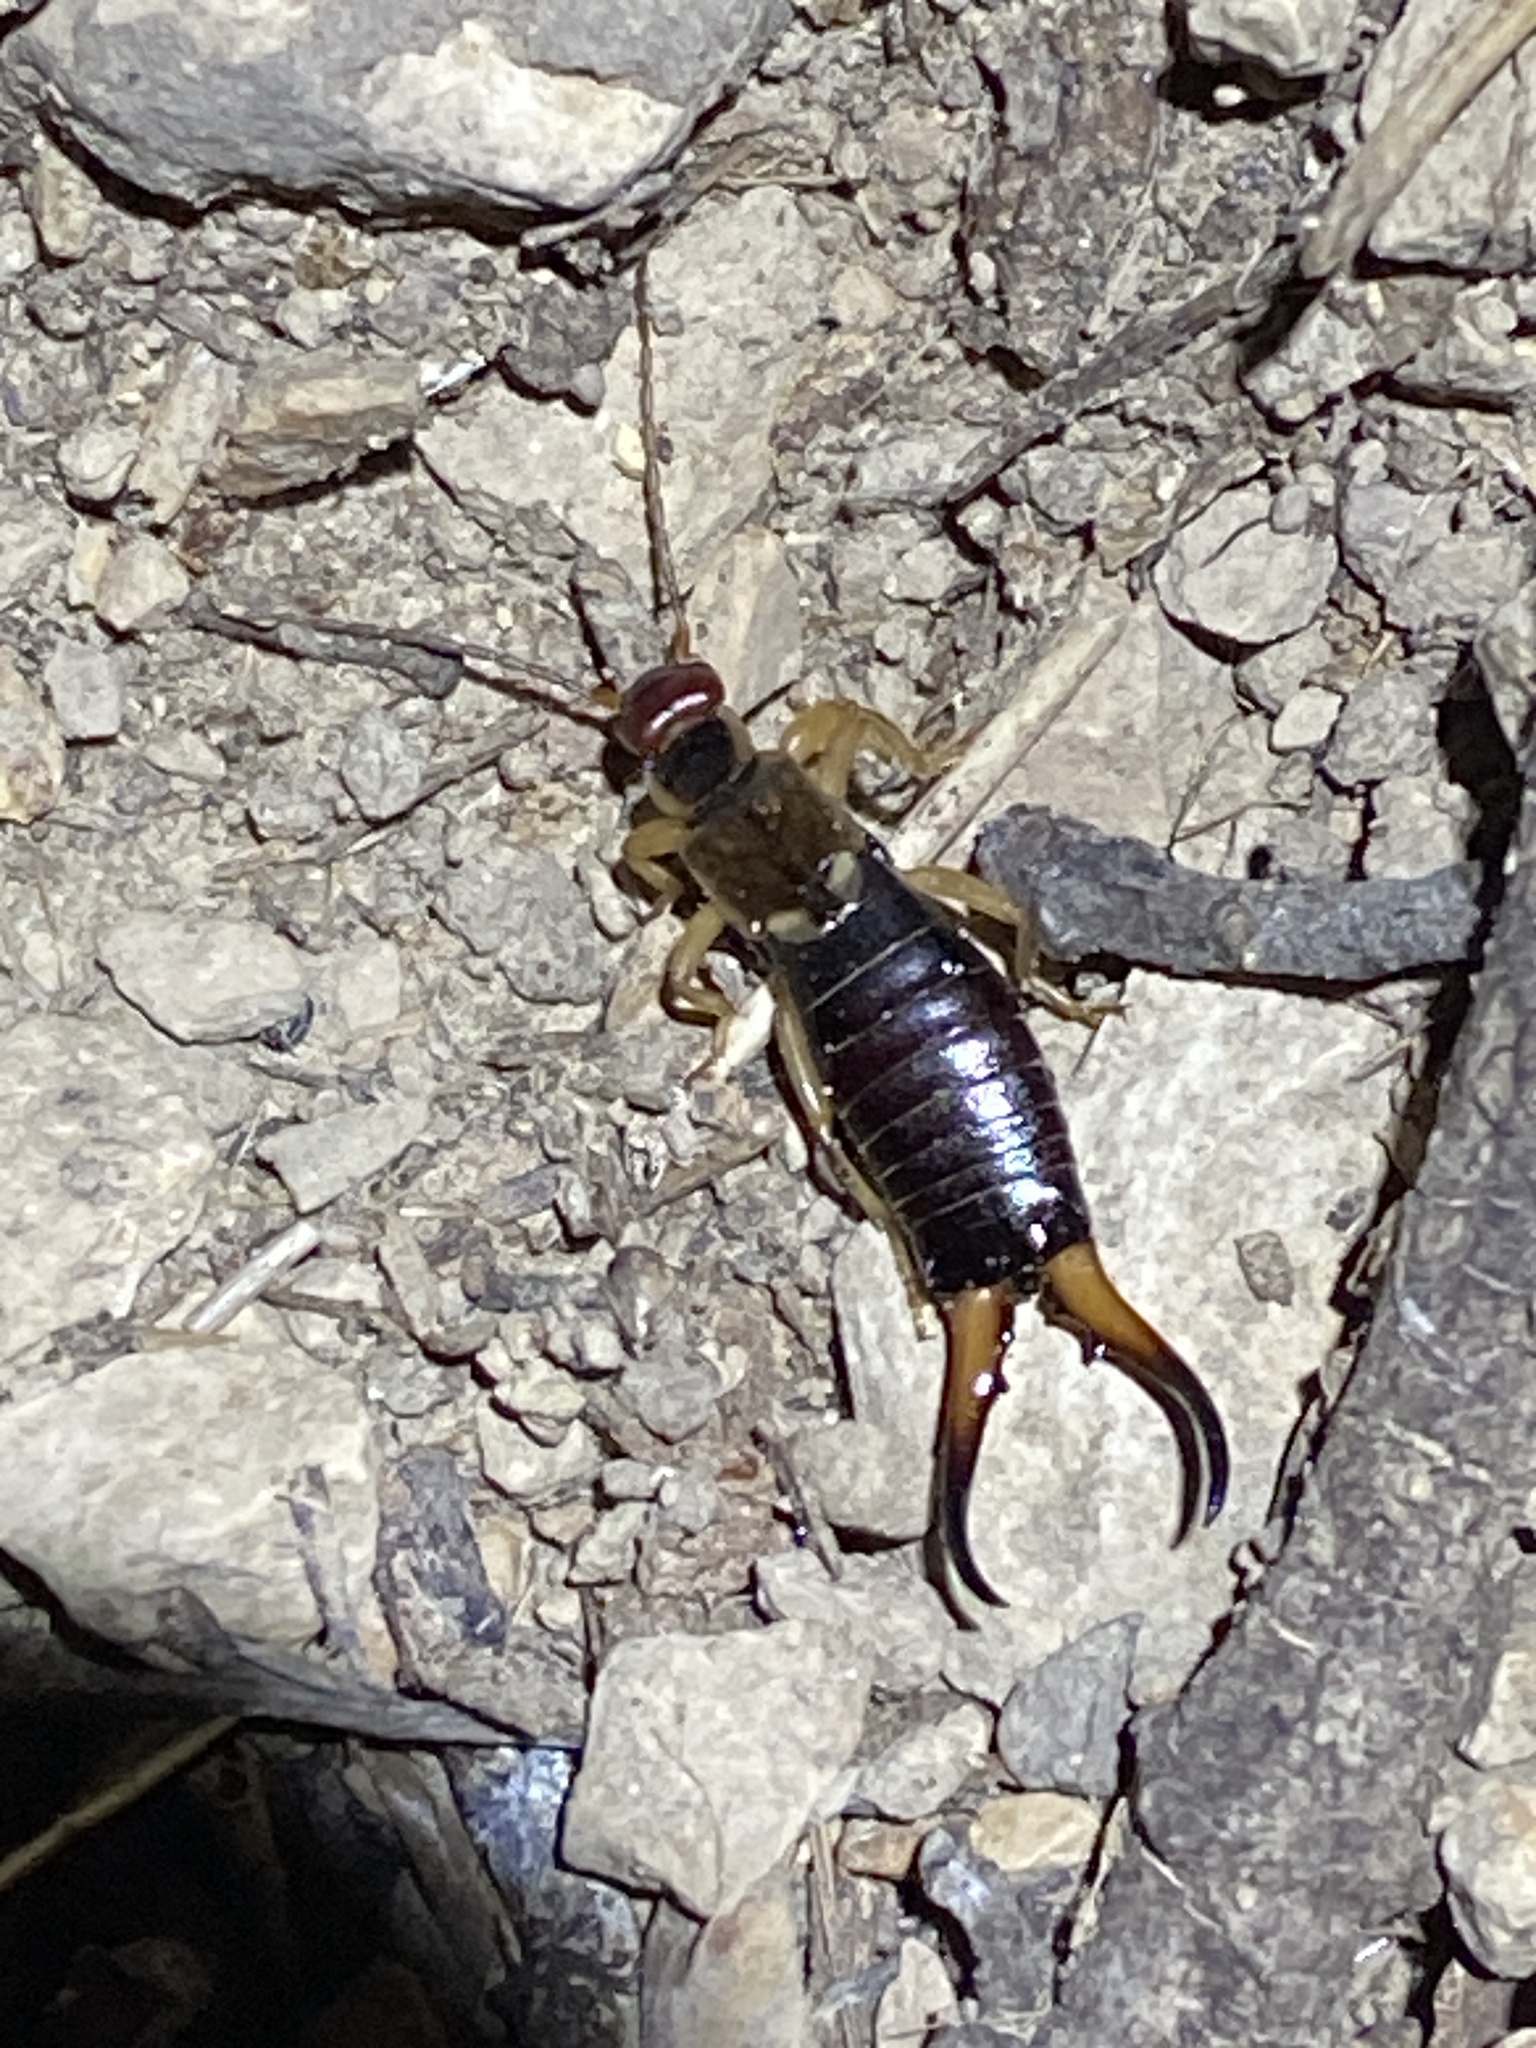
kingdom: Animalia
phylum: Arthropoda
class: Insecta
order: Dermaptera
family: Forficulidae
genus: Forficula
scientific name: Forficula
